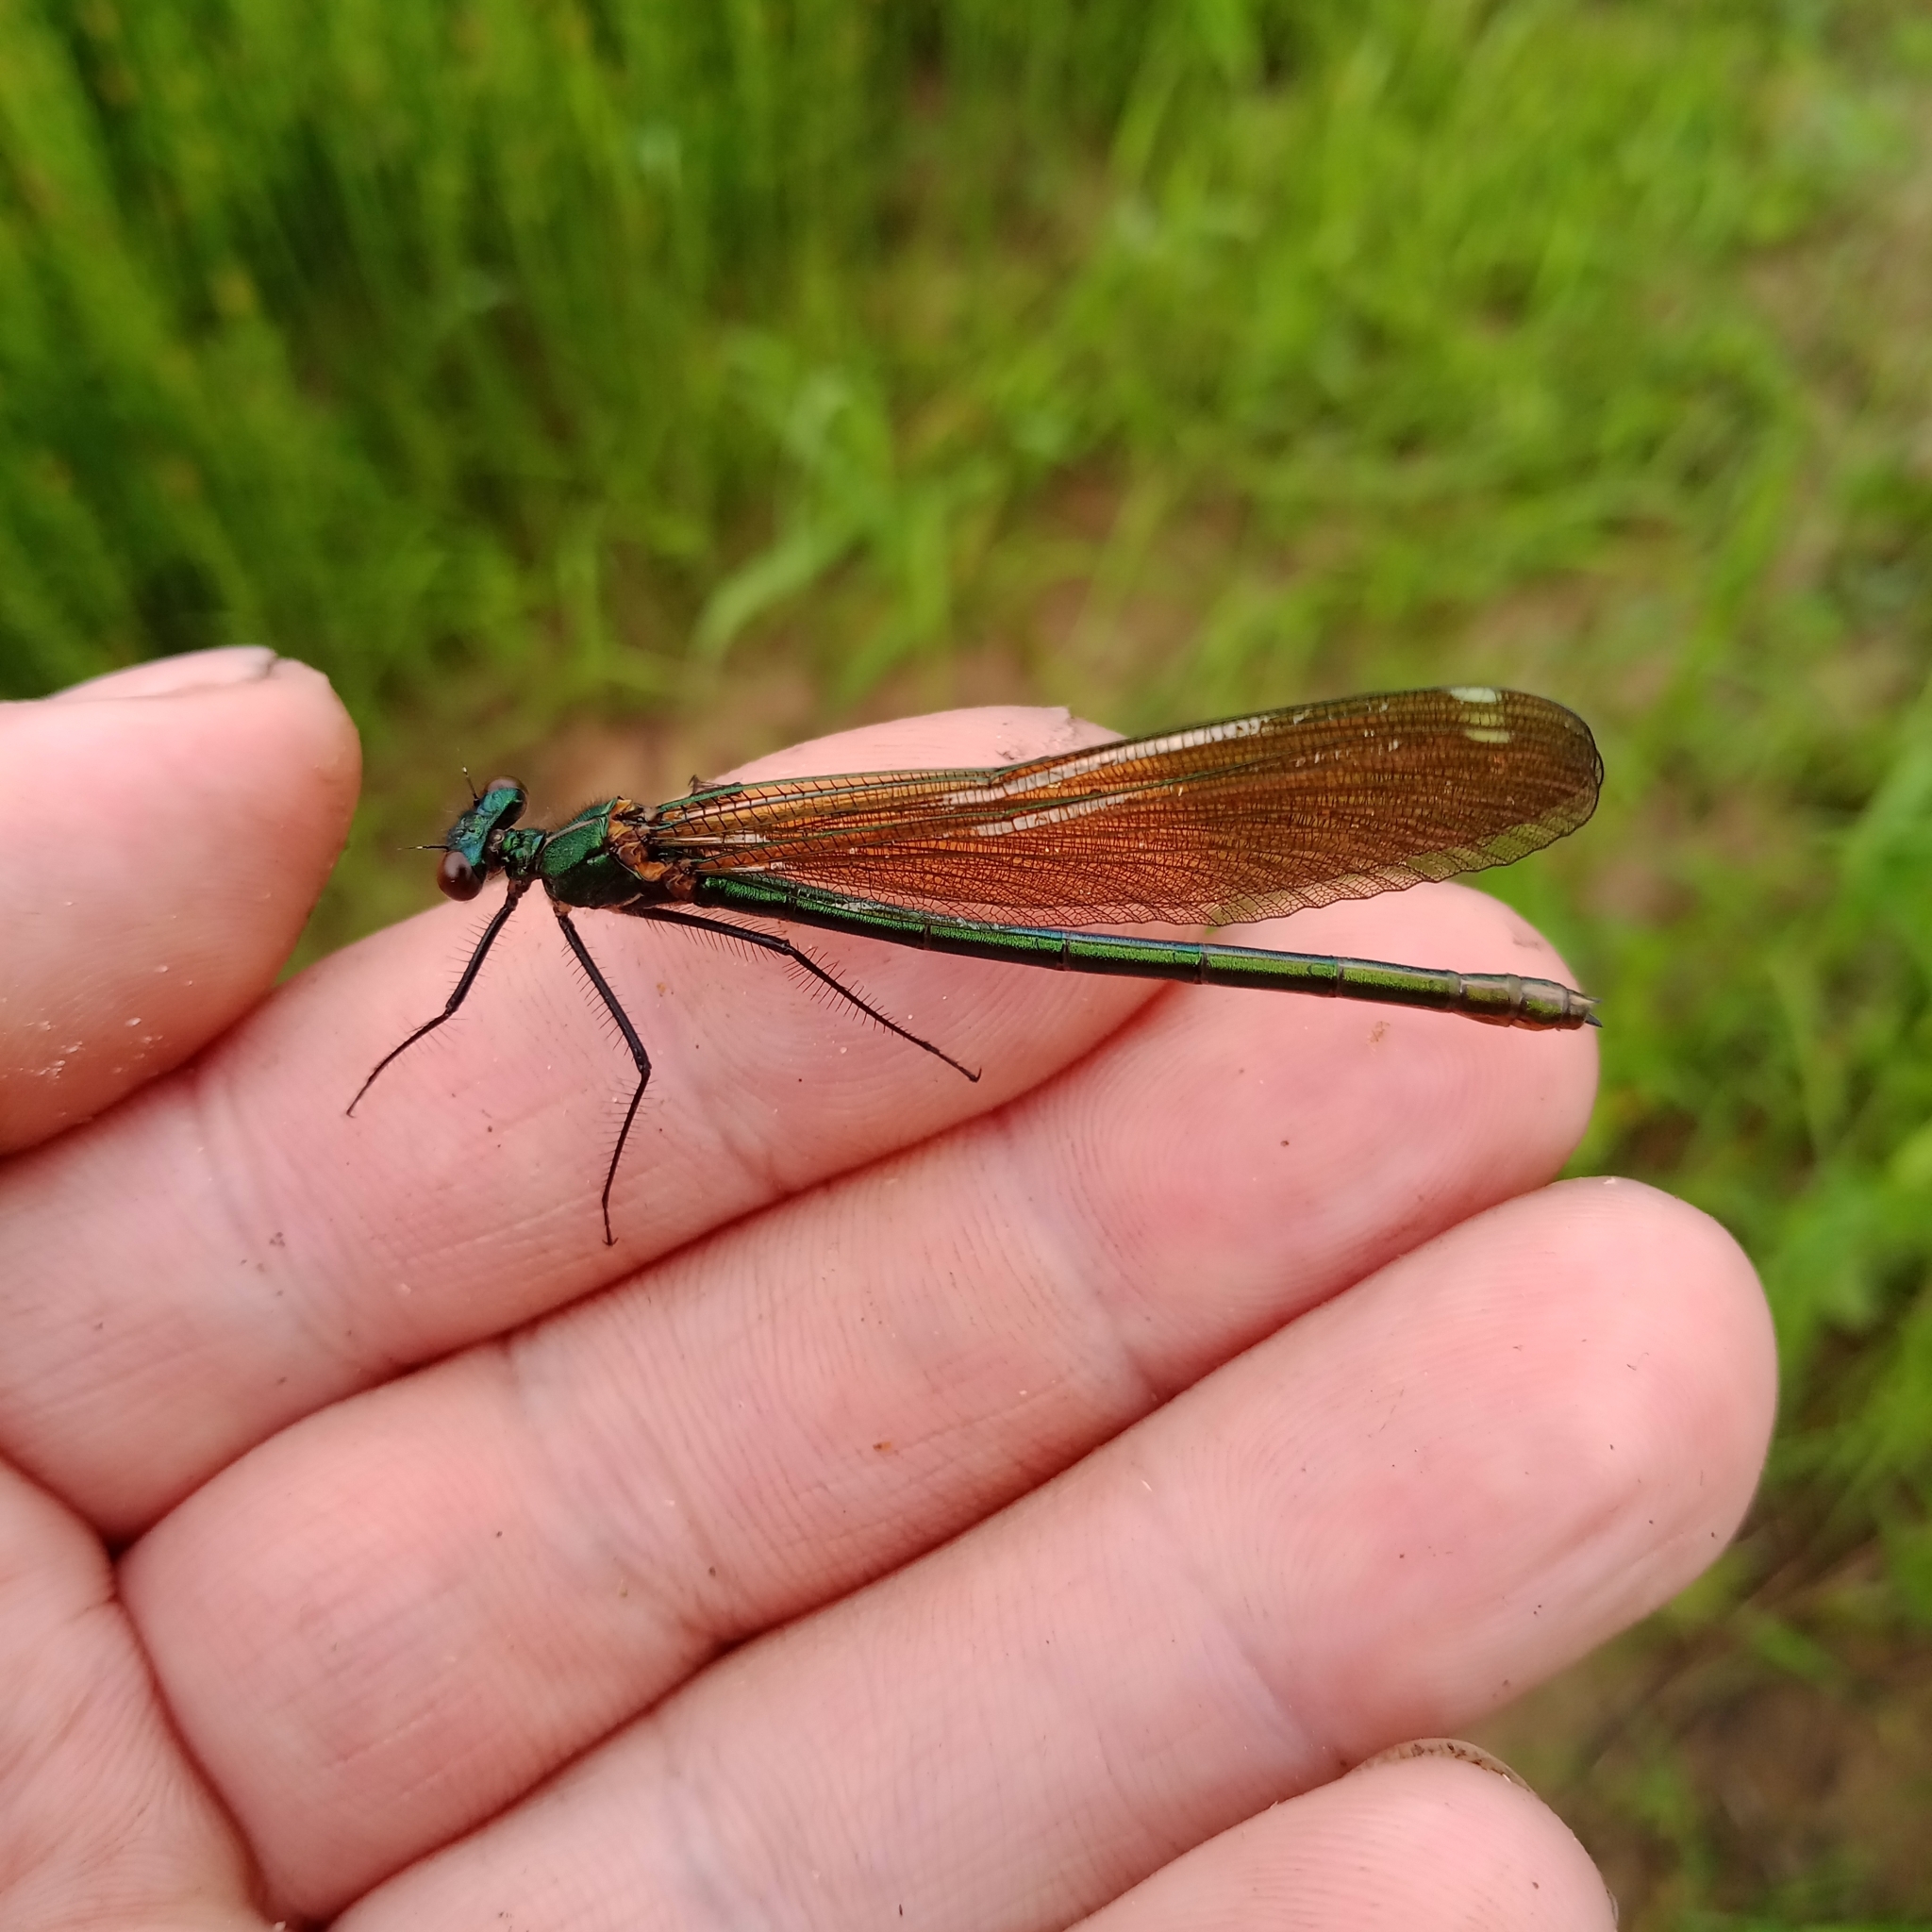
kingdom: Animalia
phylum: Arthropoda
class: Insecta
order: Odonata
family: Calopterygidae
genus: Calopteryx
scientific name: Calopteryx splendens
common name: Banded demoiselle
